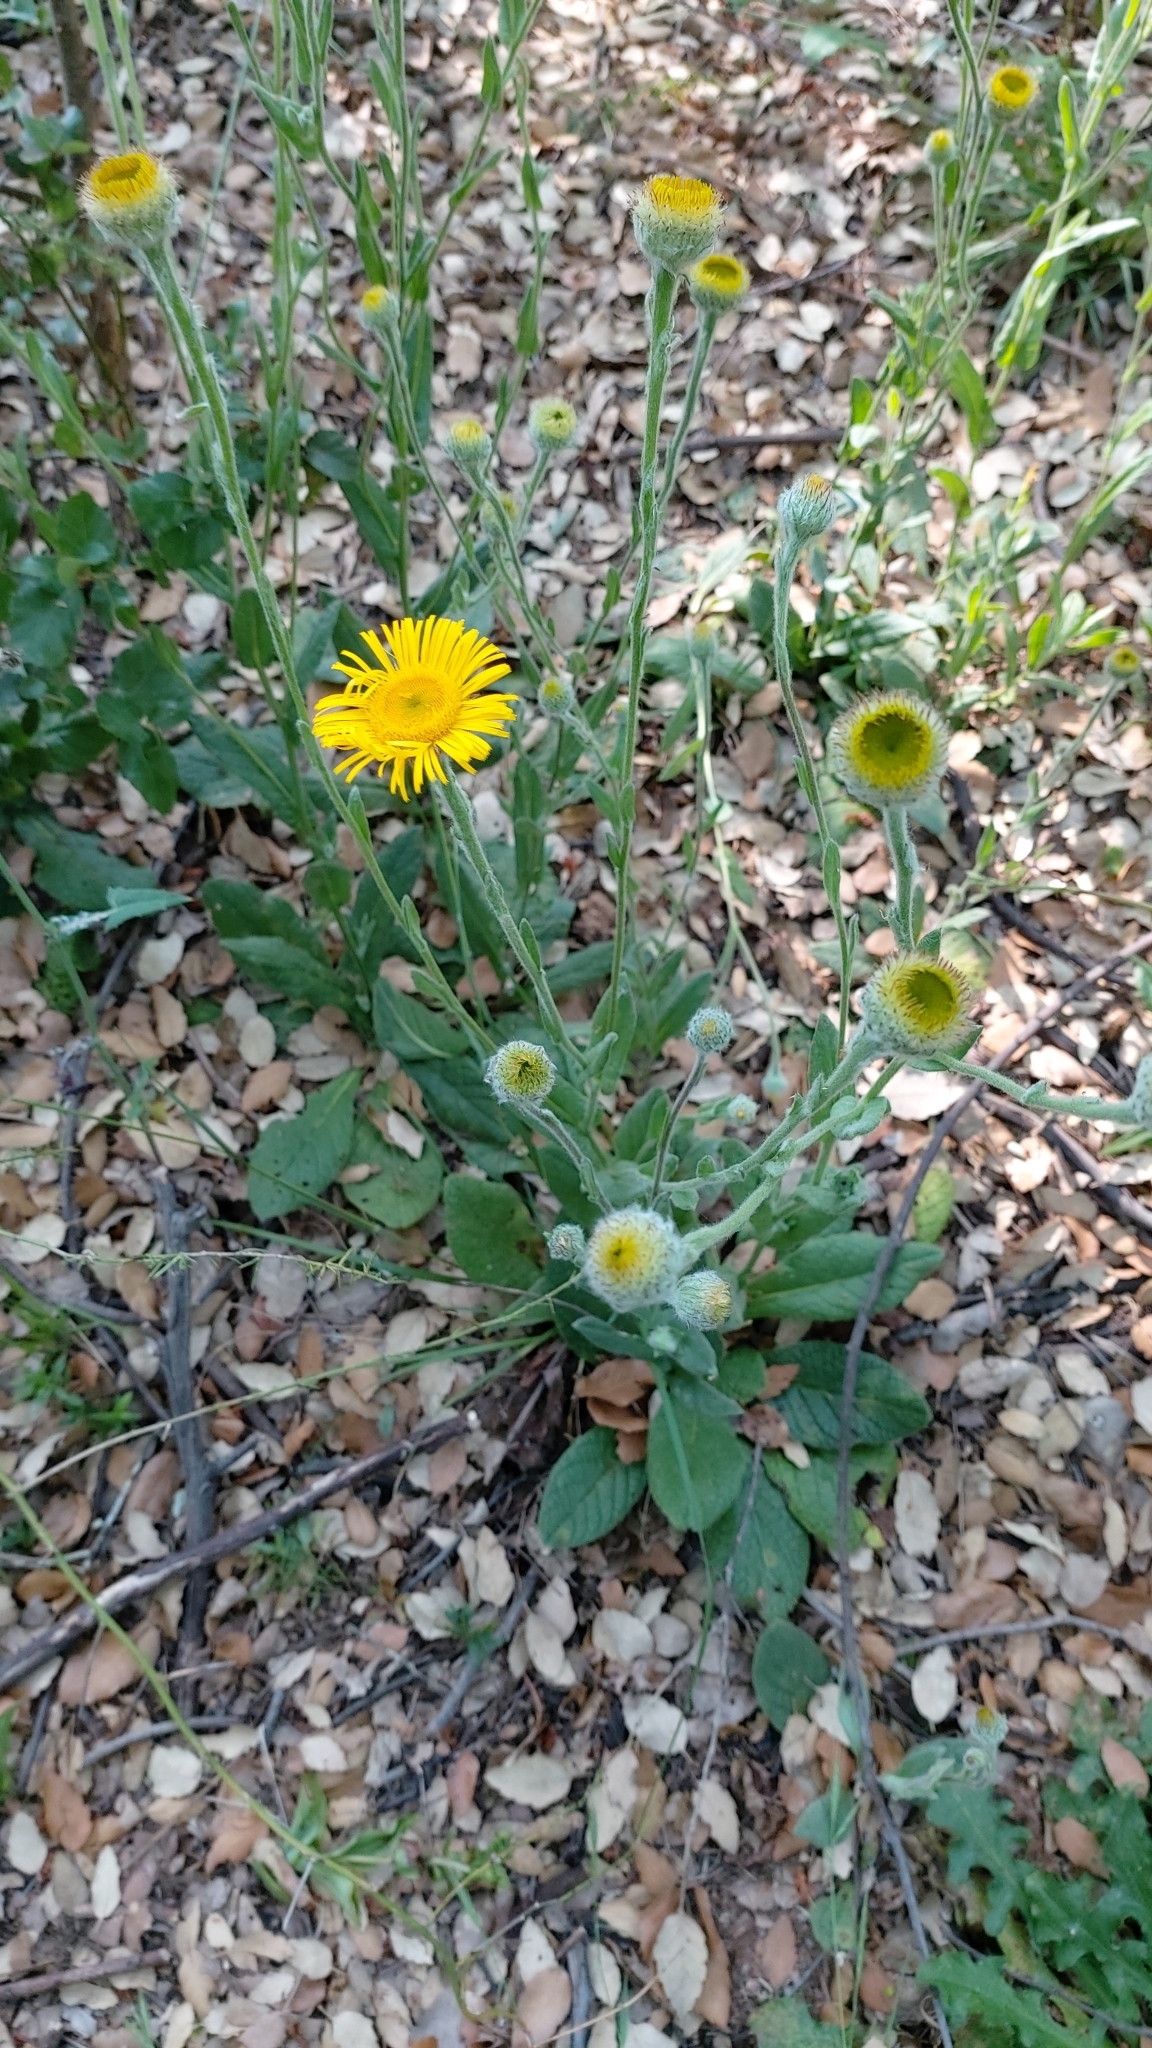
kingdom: Plantae
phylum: Tracheophyta
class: Magnoliopsida
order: Asterales
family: Asteraceae
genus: Pulicaria
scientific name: Pulicaria odora
